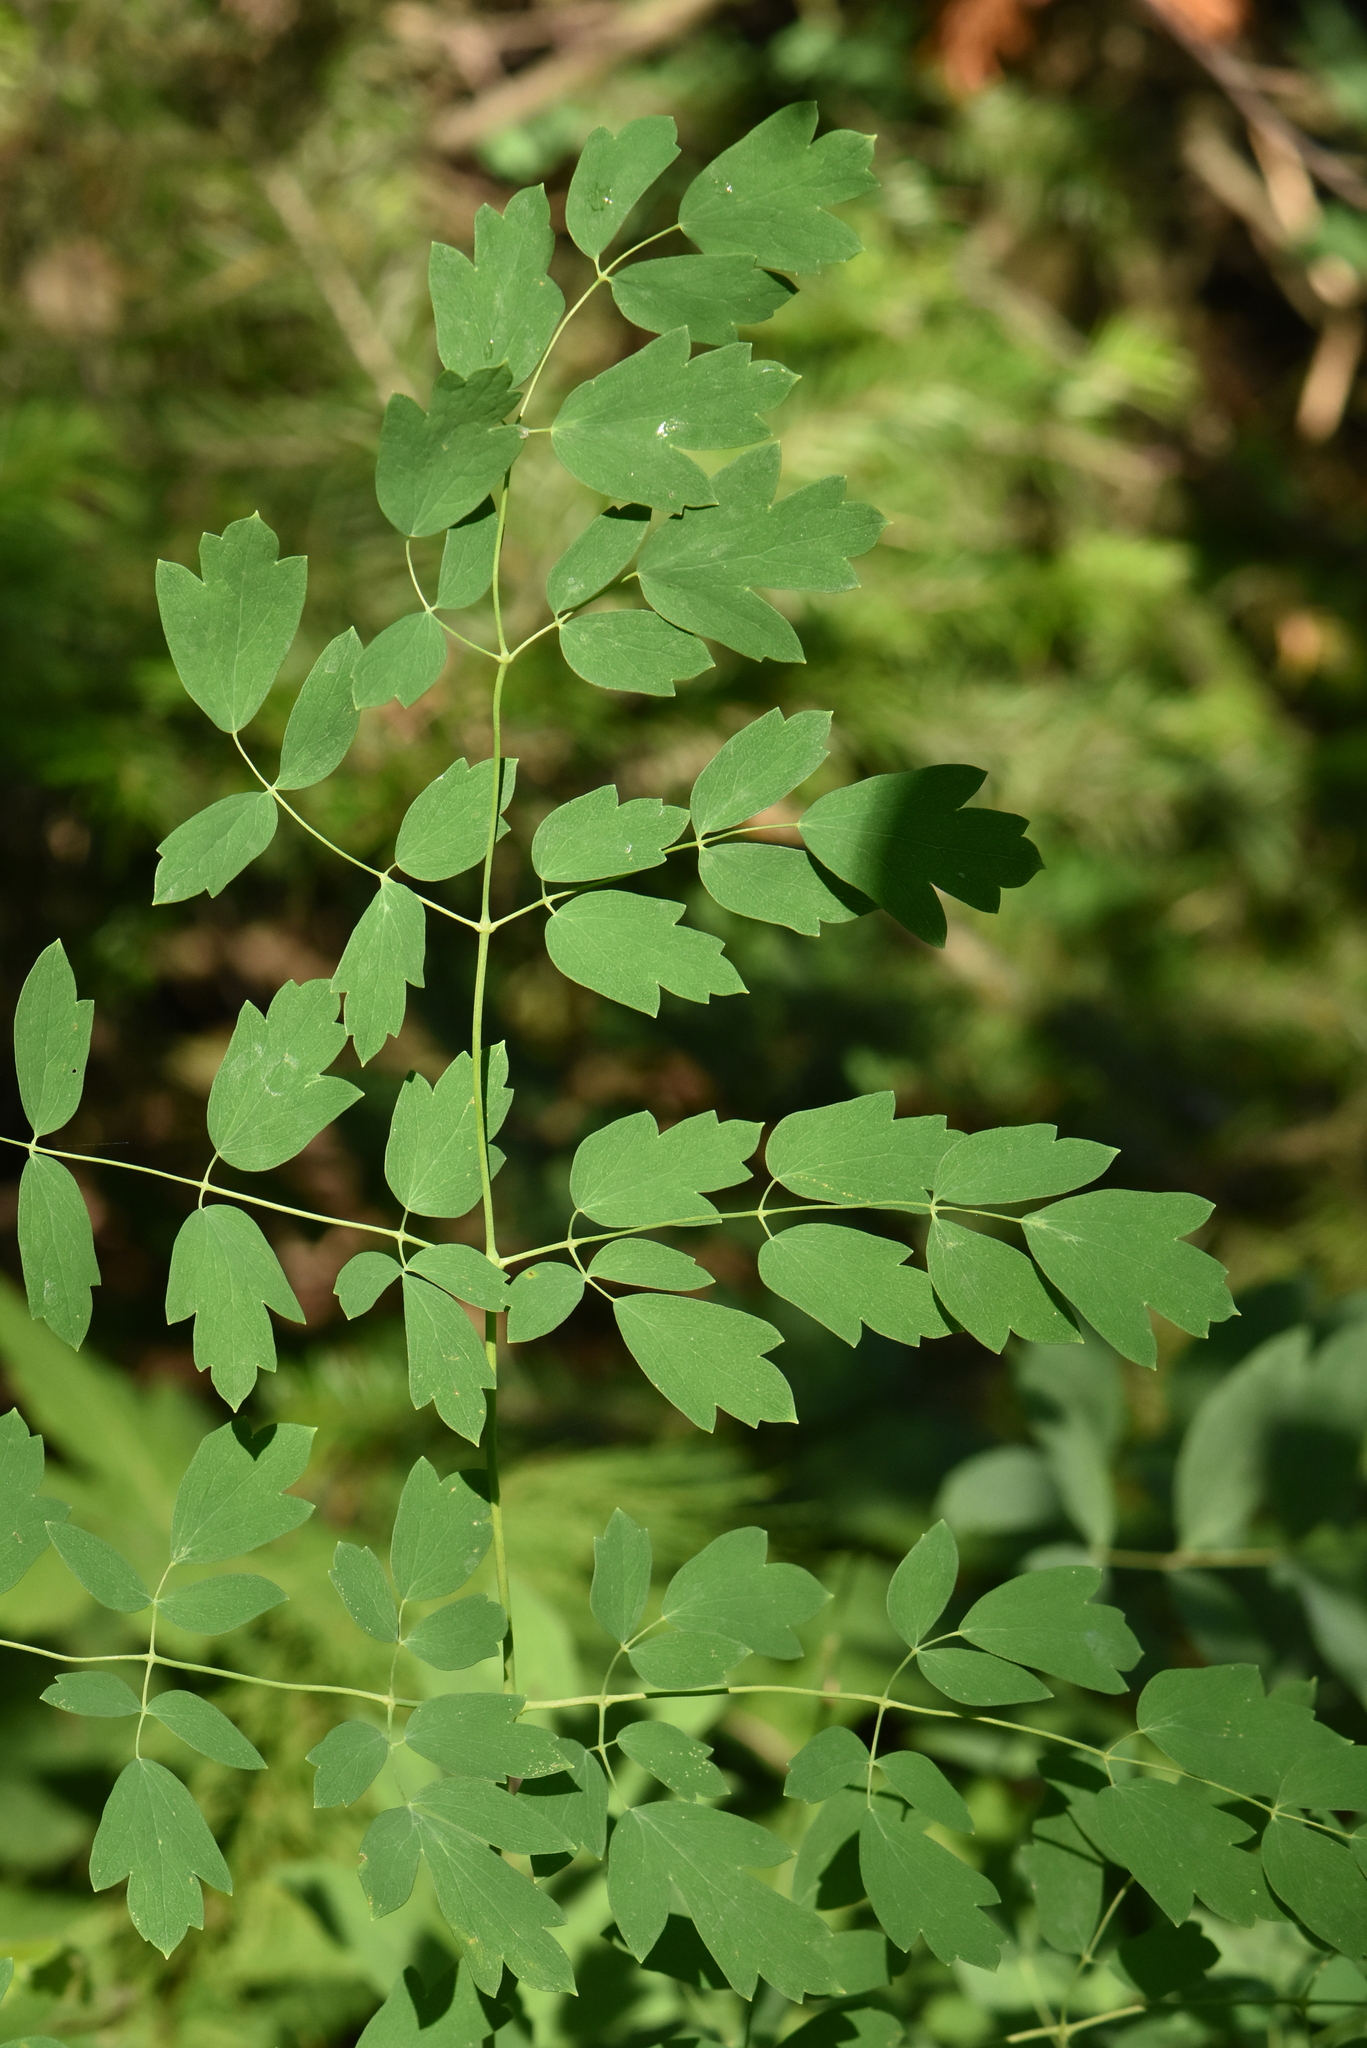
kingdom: Plantae
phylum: Tracheophyta
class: Magnoliopsida
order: Ranunculales
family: Ranunculaceae
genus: Thalictrum
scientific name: Thalictrum minus
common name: Lesser meadow-rue
